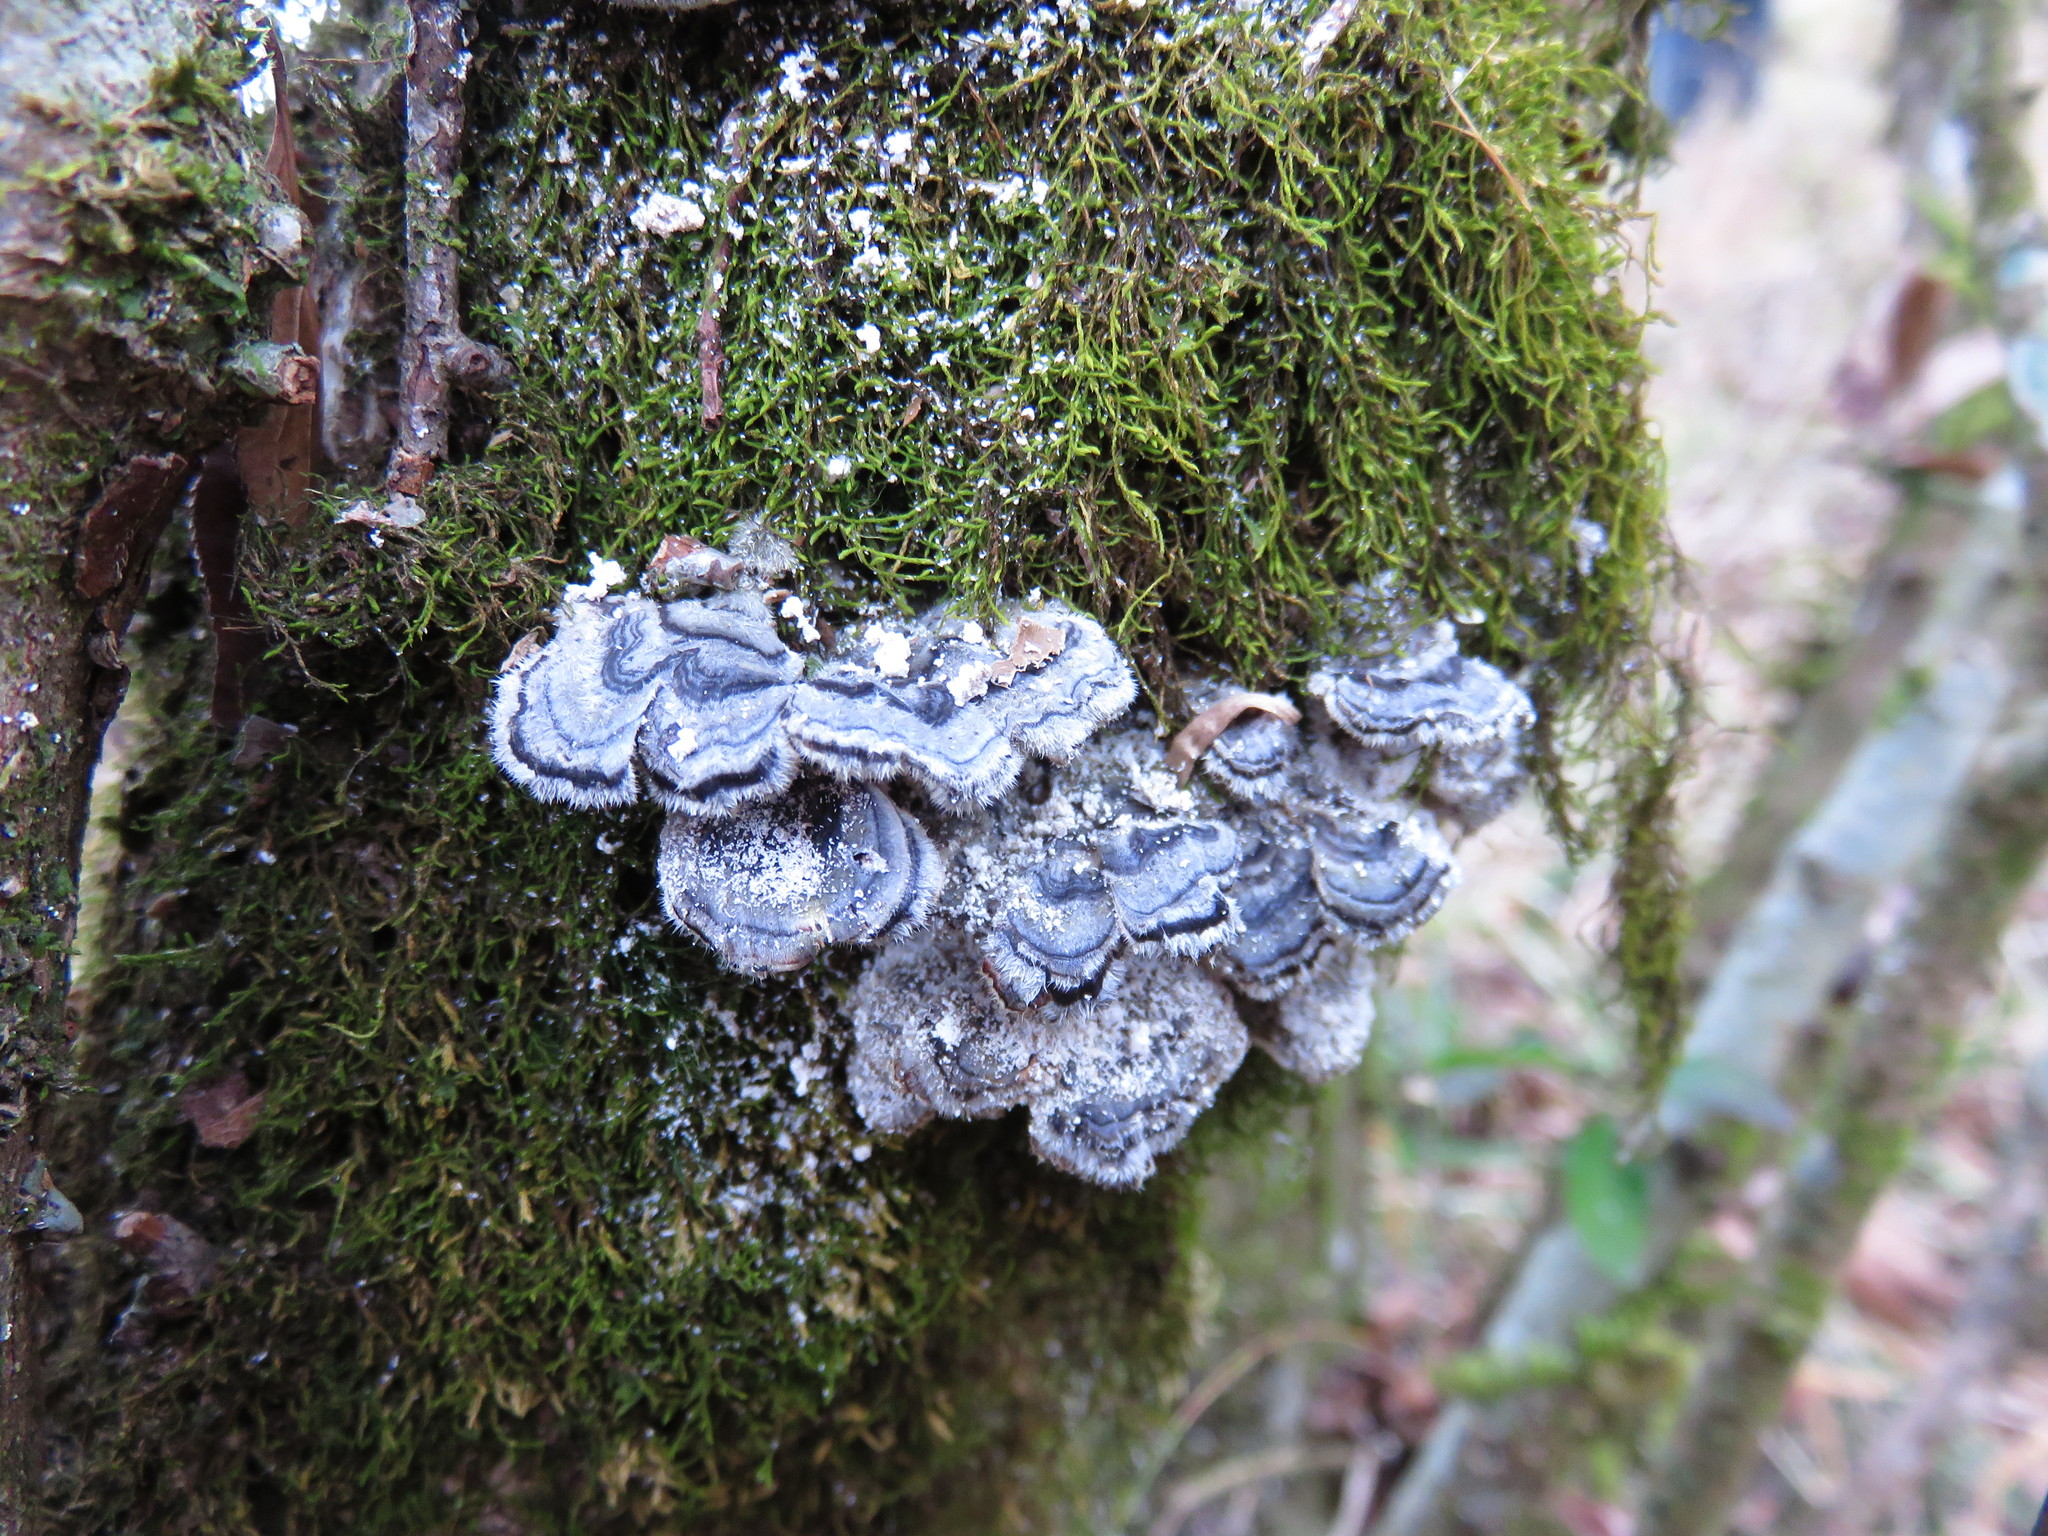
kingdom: Fungi
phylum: Basidiomycota
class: Agaricomycetes
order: Polyporales
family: Polyporaceae
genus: Trametes
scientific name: Trametes versicolor
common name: Turkeytail
